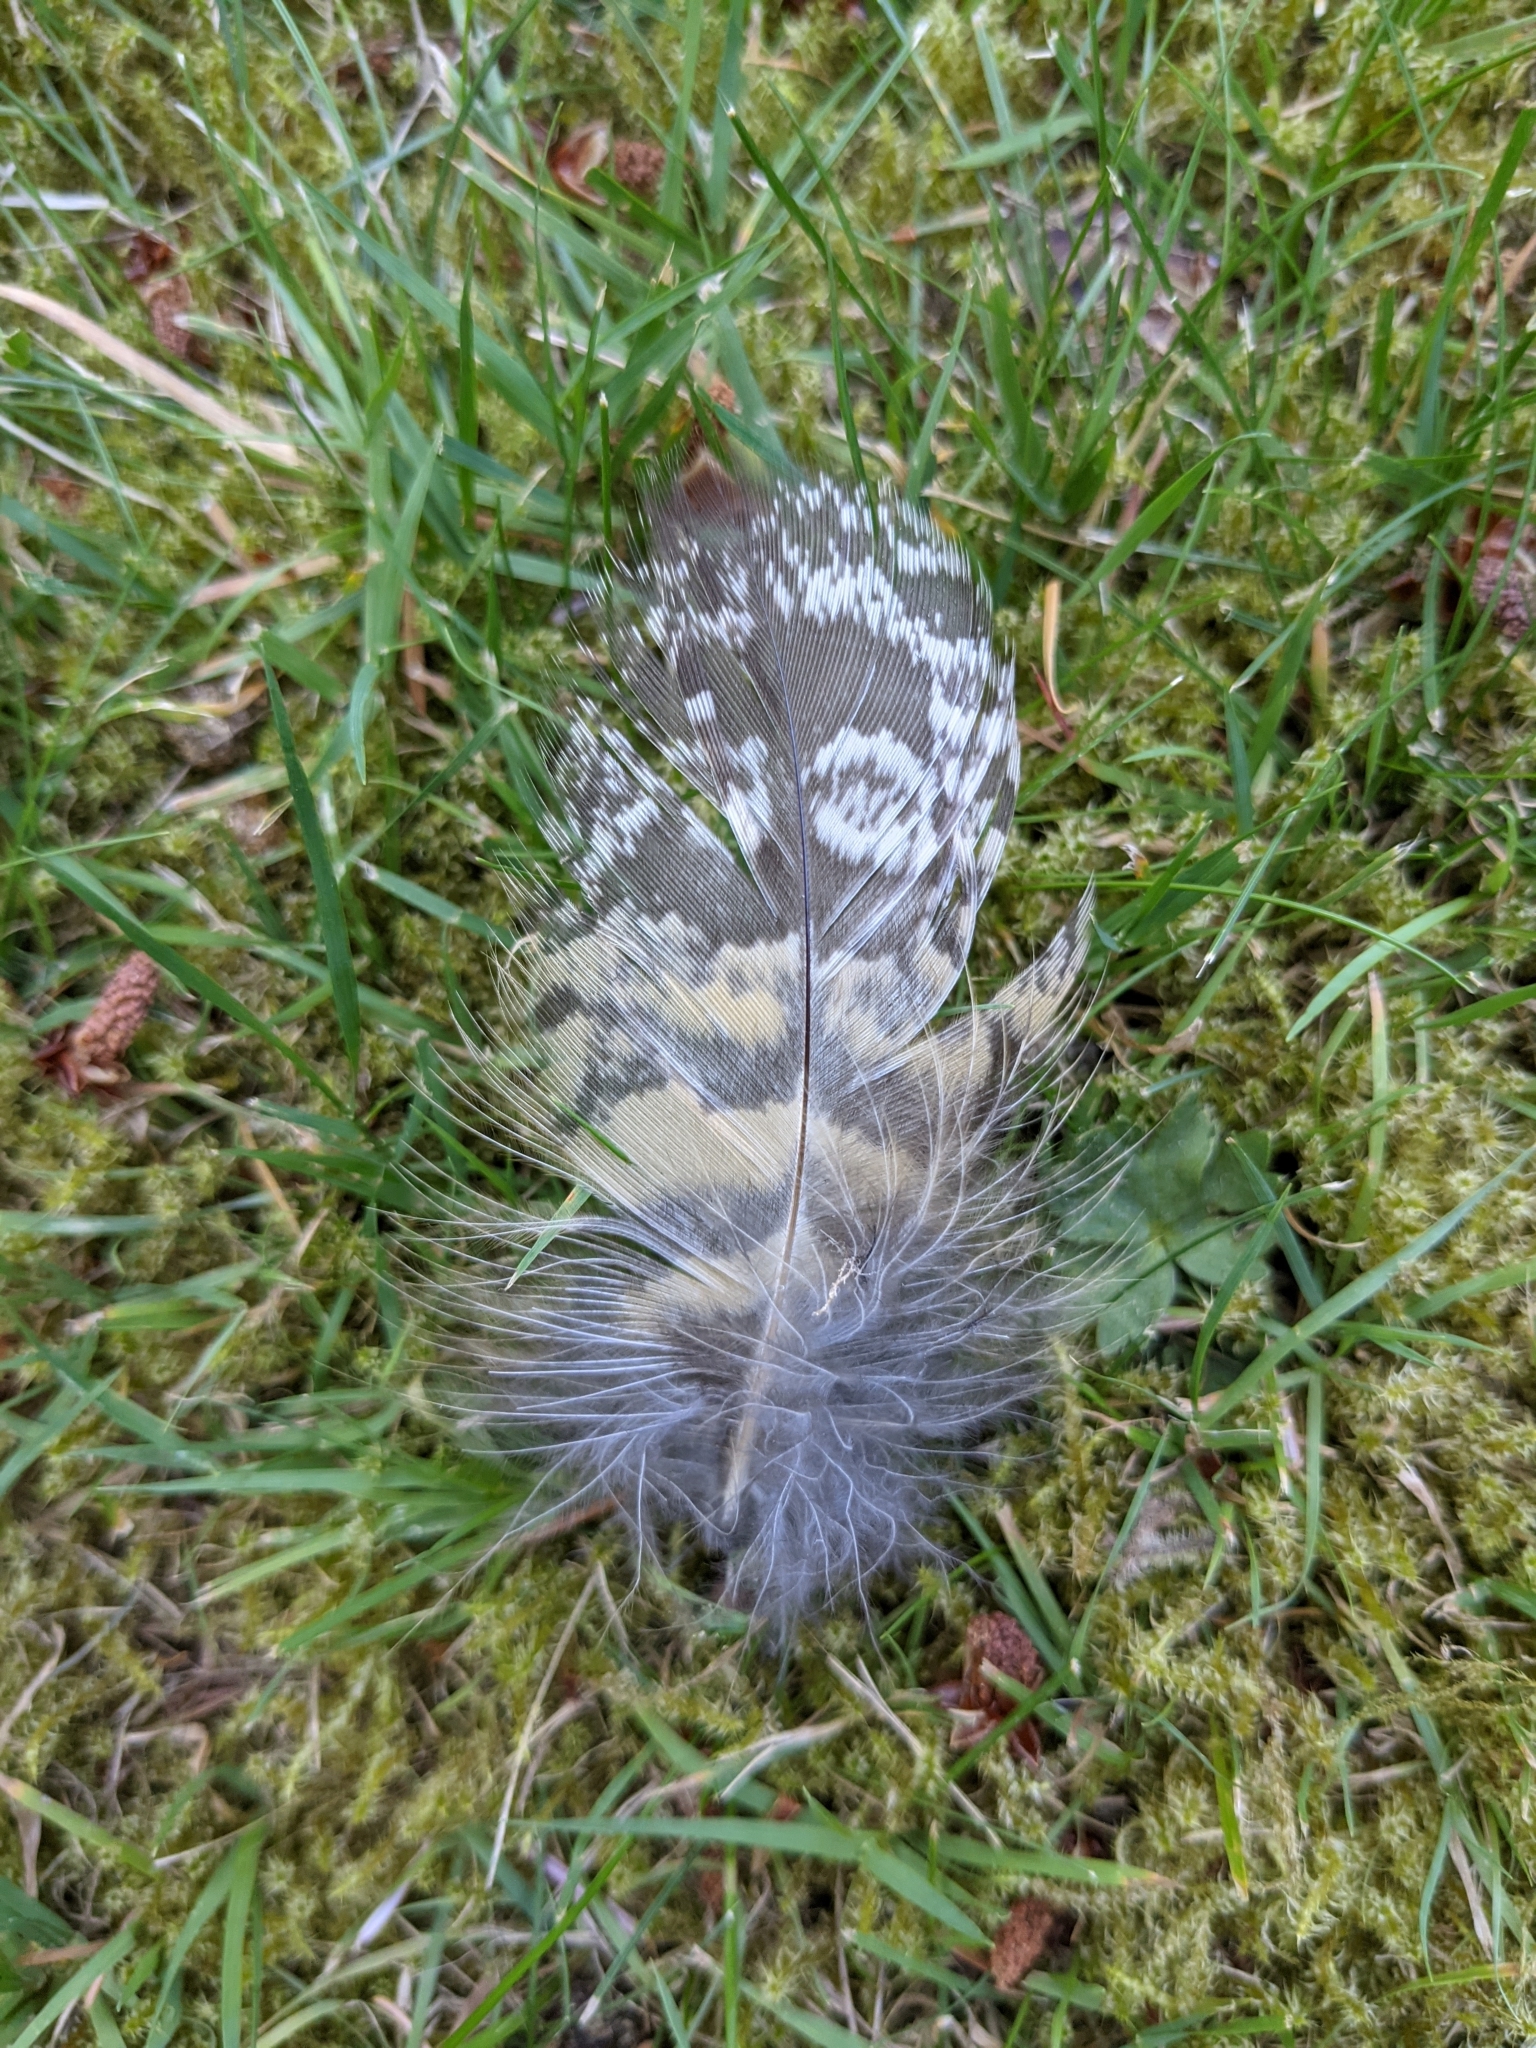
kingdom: Animalia
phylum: Chordata
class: Aves
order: Strigiformes
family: Strigidae
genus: Bubo
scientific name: Bubo virginianus
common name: Great horned owl
